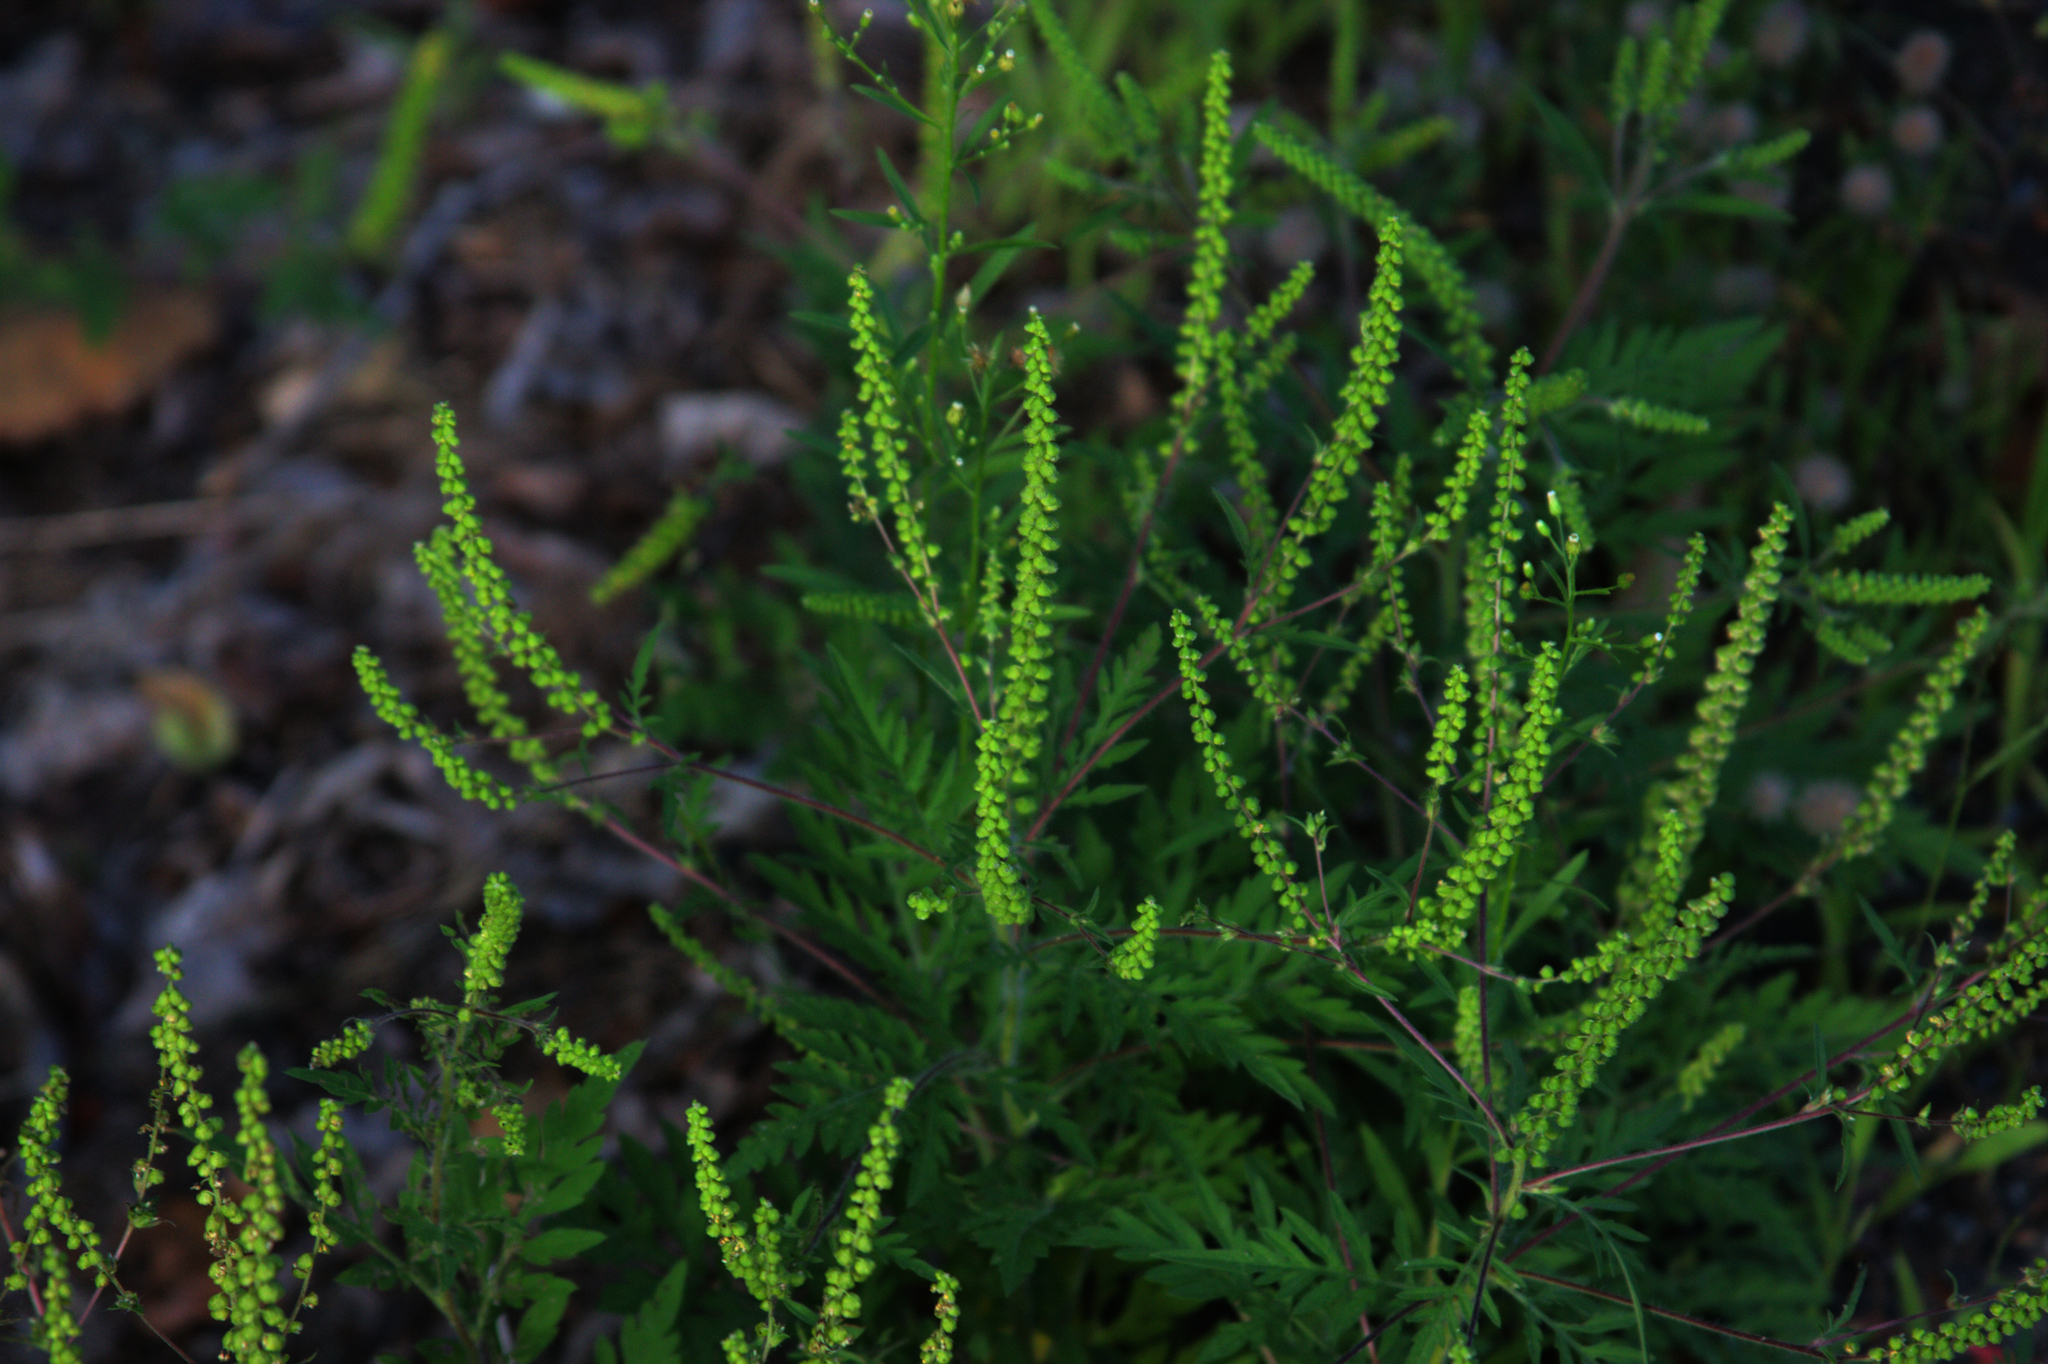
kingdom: Plantae
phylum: Tracheophyta
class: Magnoliopsida
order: Asterales
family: Asteraceae
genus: Ambrosia
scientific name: Ambrosia artemisiifolia
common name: Annual ragweed
